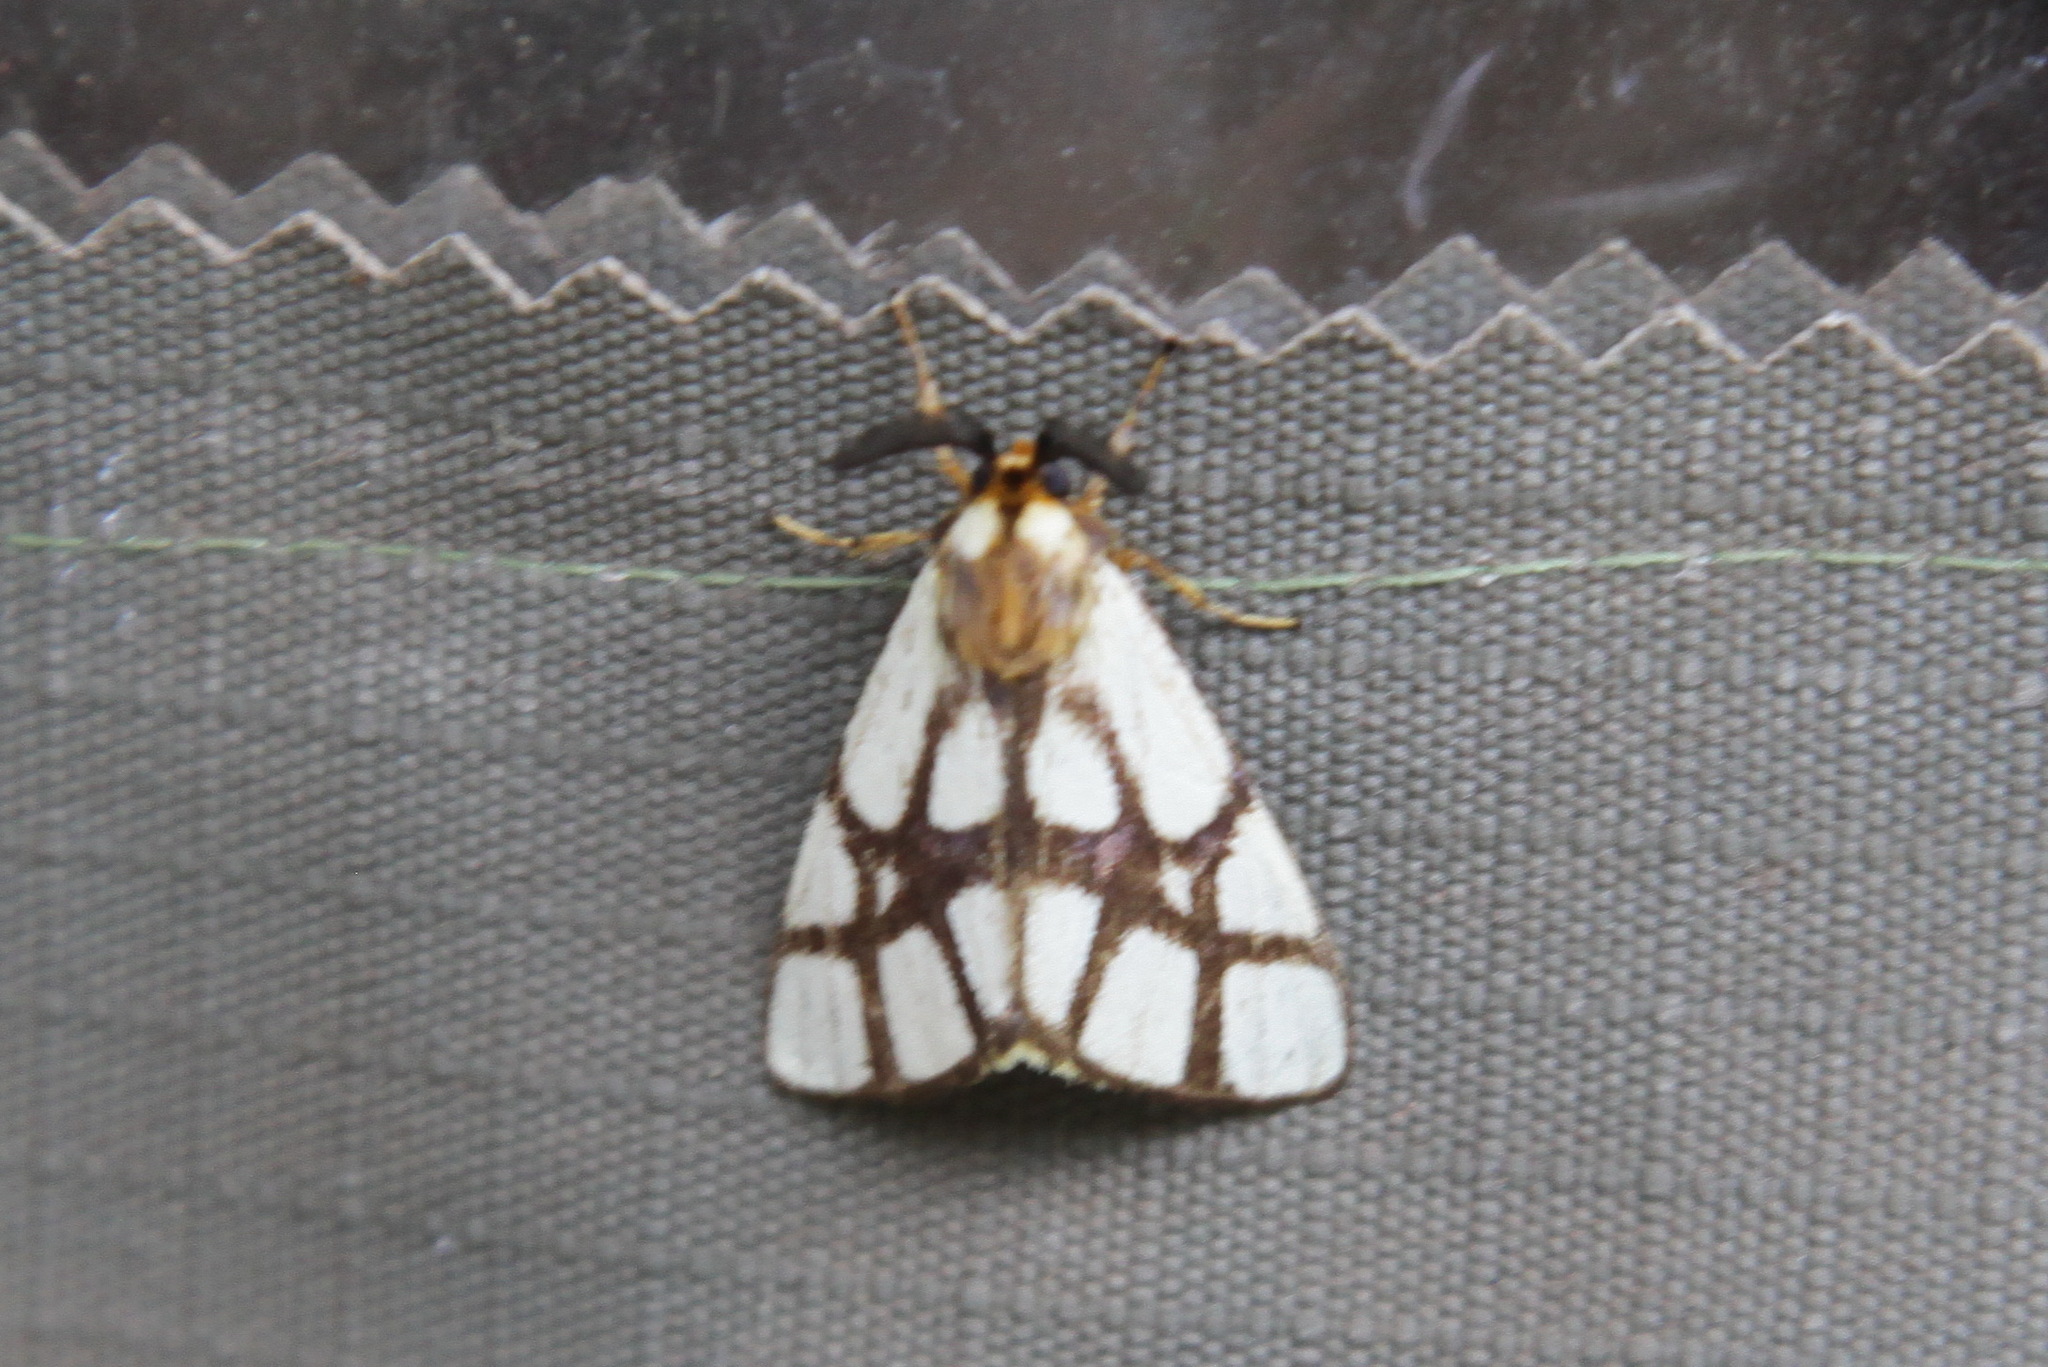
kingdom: Animalia
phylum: Arthropoda
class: Insecta
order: Lepidoptera
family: Notodontidae
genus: Anaphe
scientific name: Anaphe reticulata
